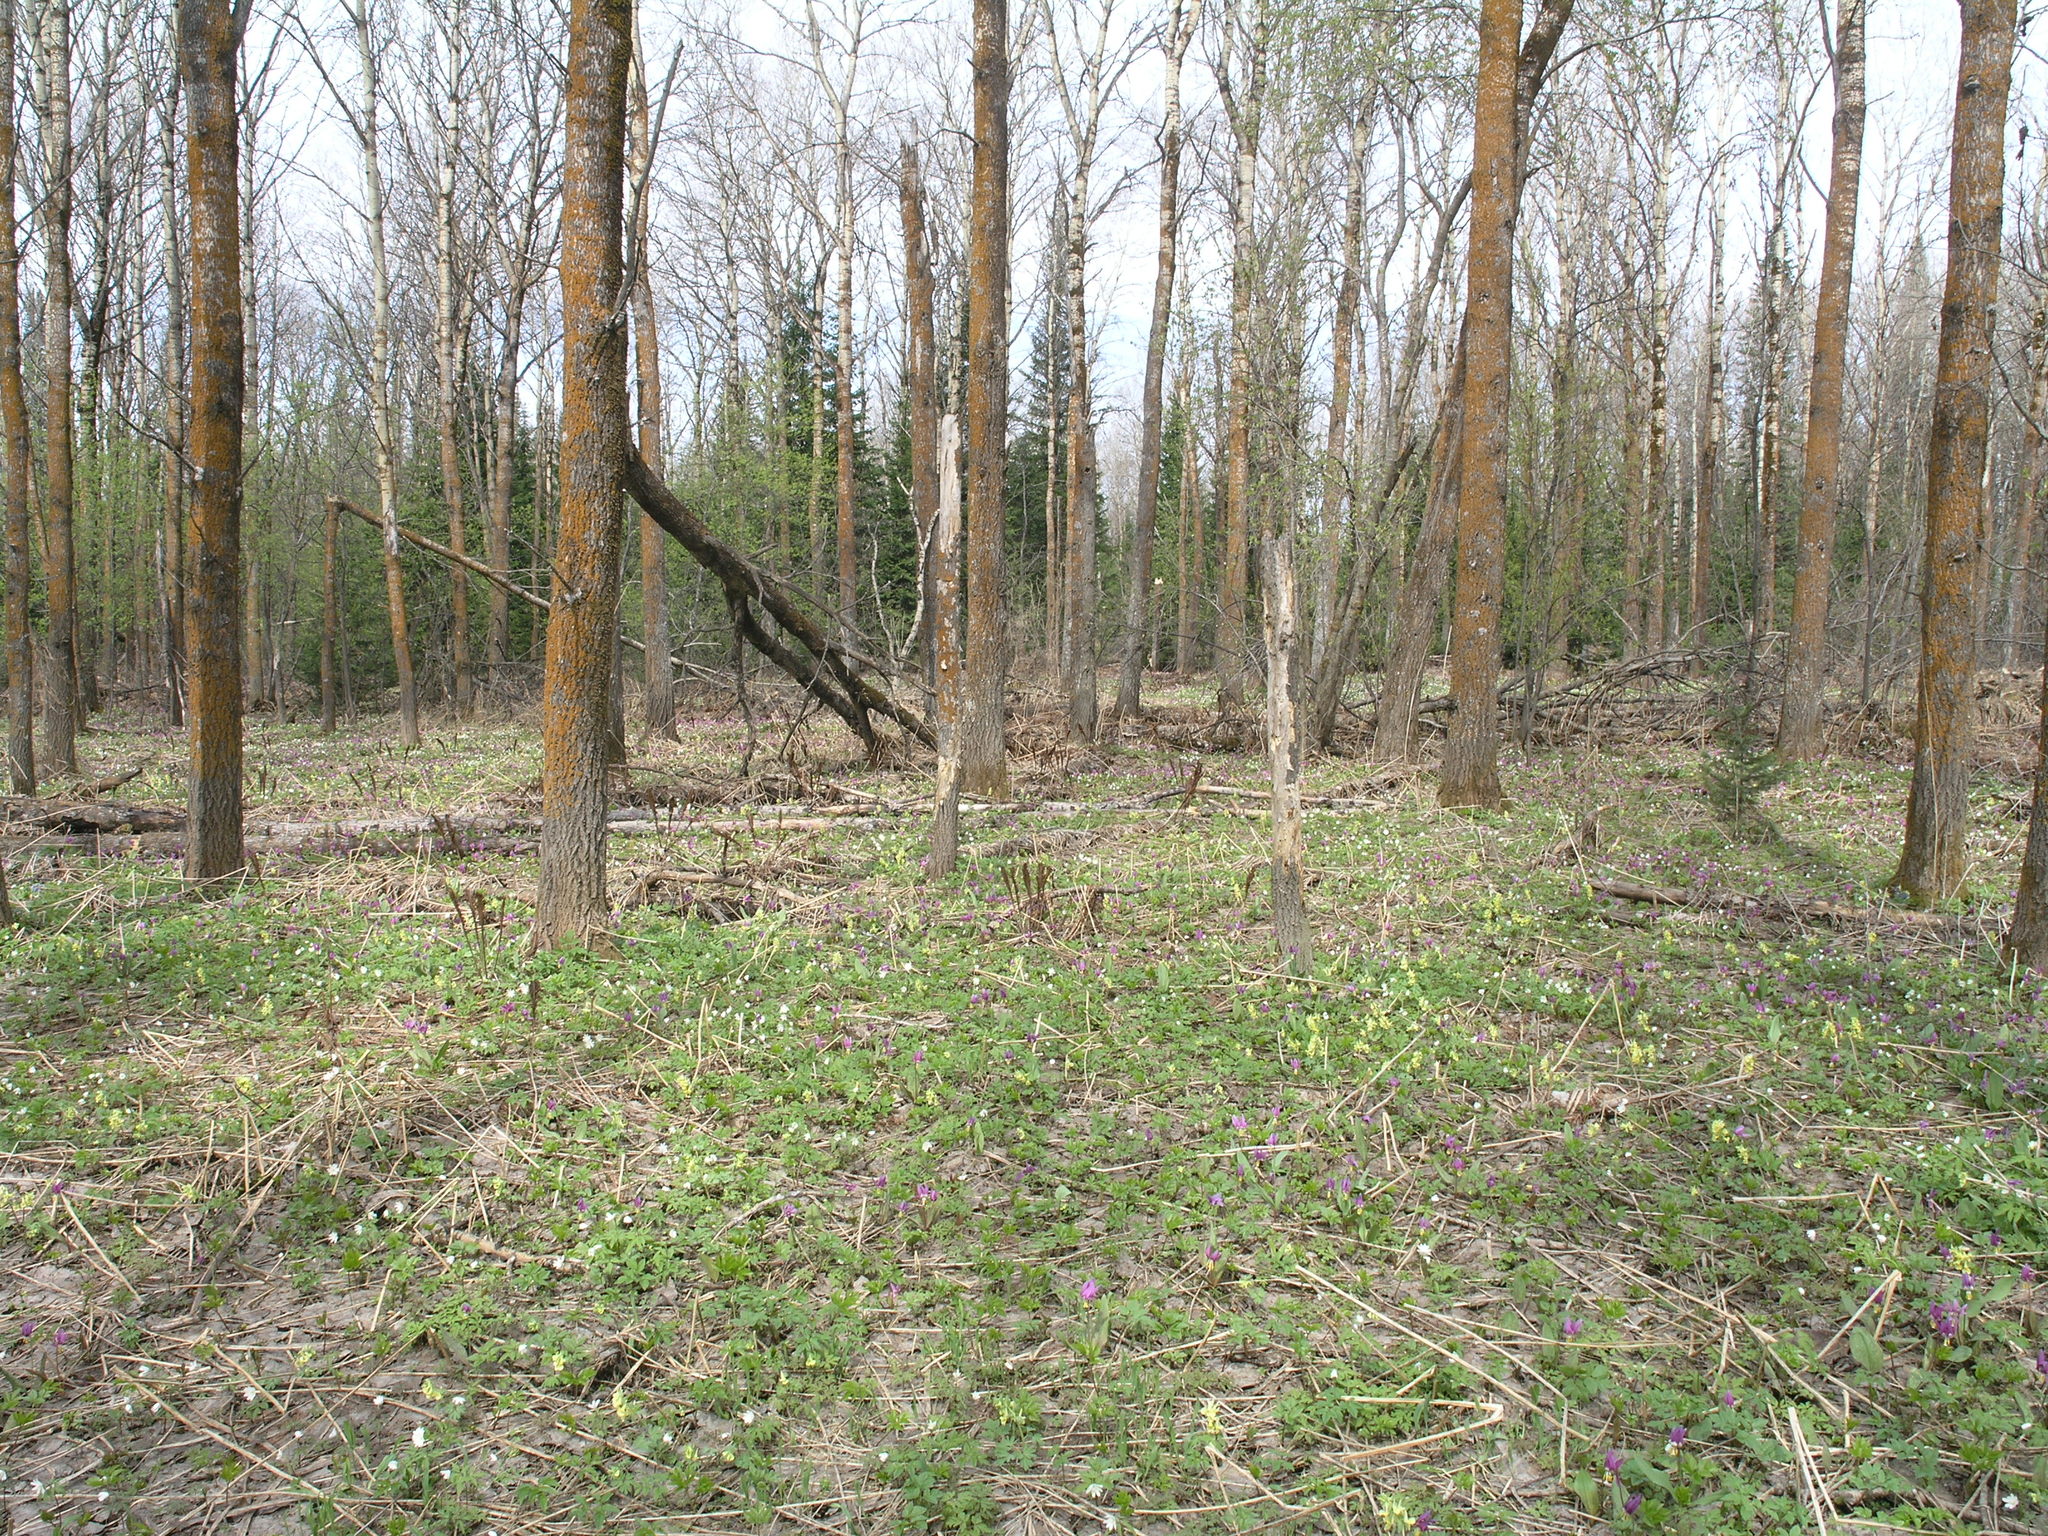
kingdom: Plantae
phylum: Tracheophyta
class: Magnoliopsida
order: Ranunculales
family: Papaveraceae
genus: Corydalis
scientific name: Corydalis bracteata
